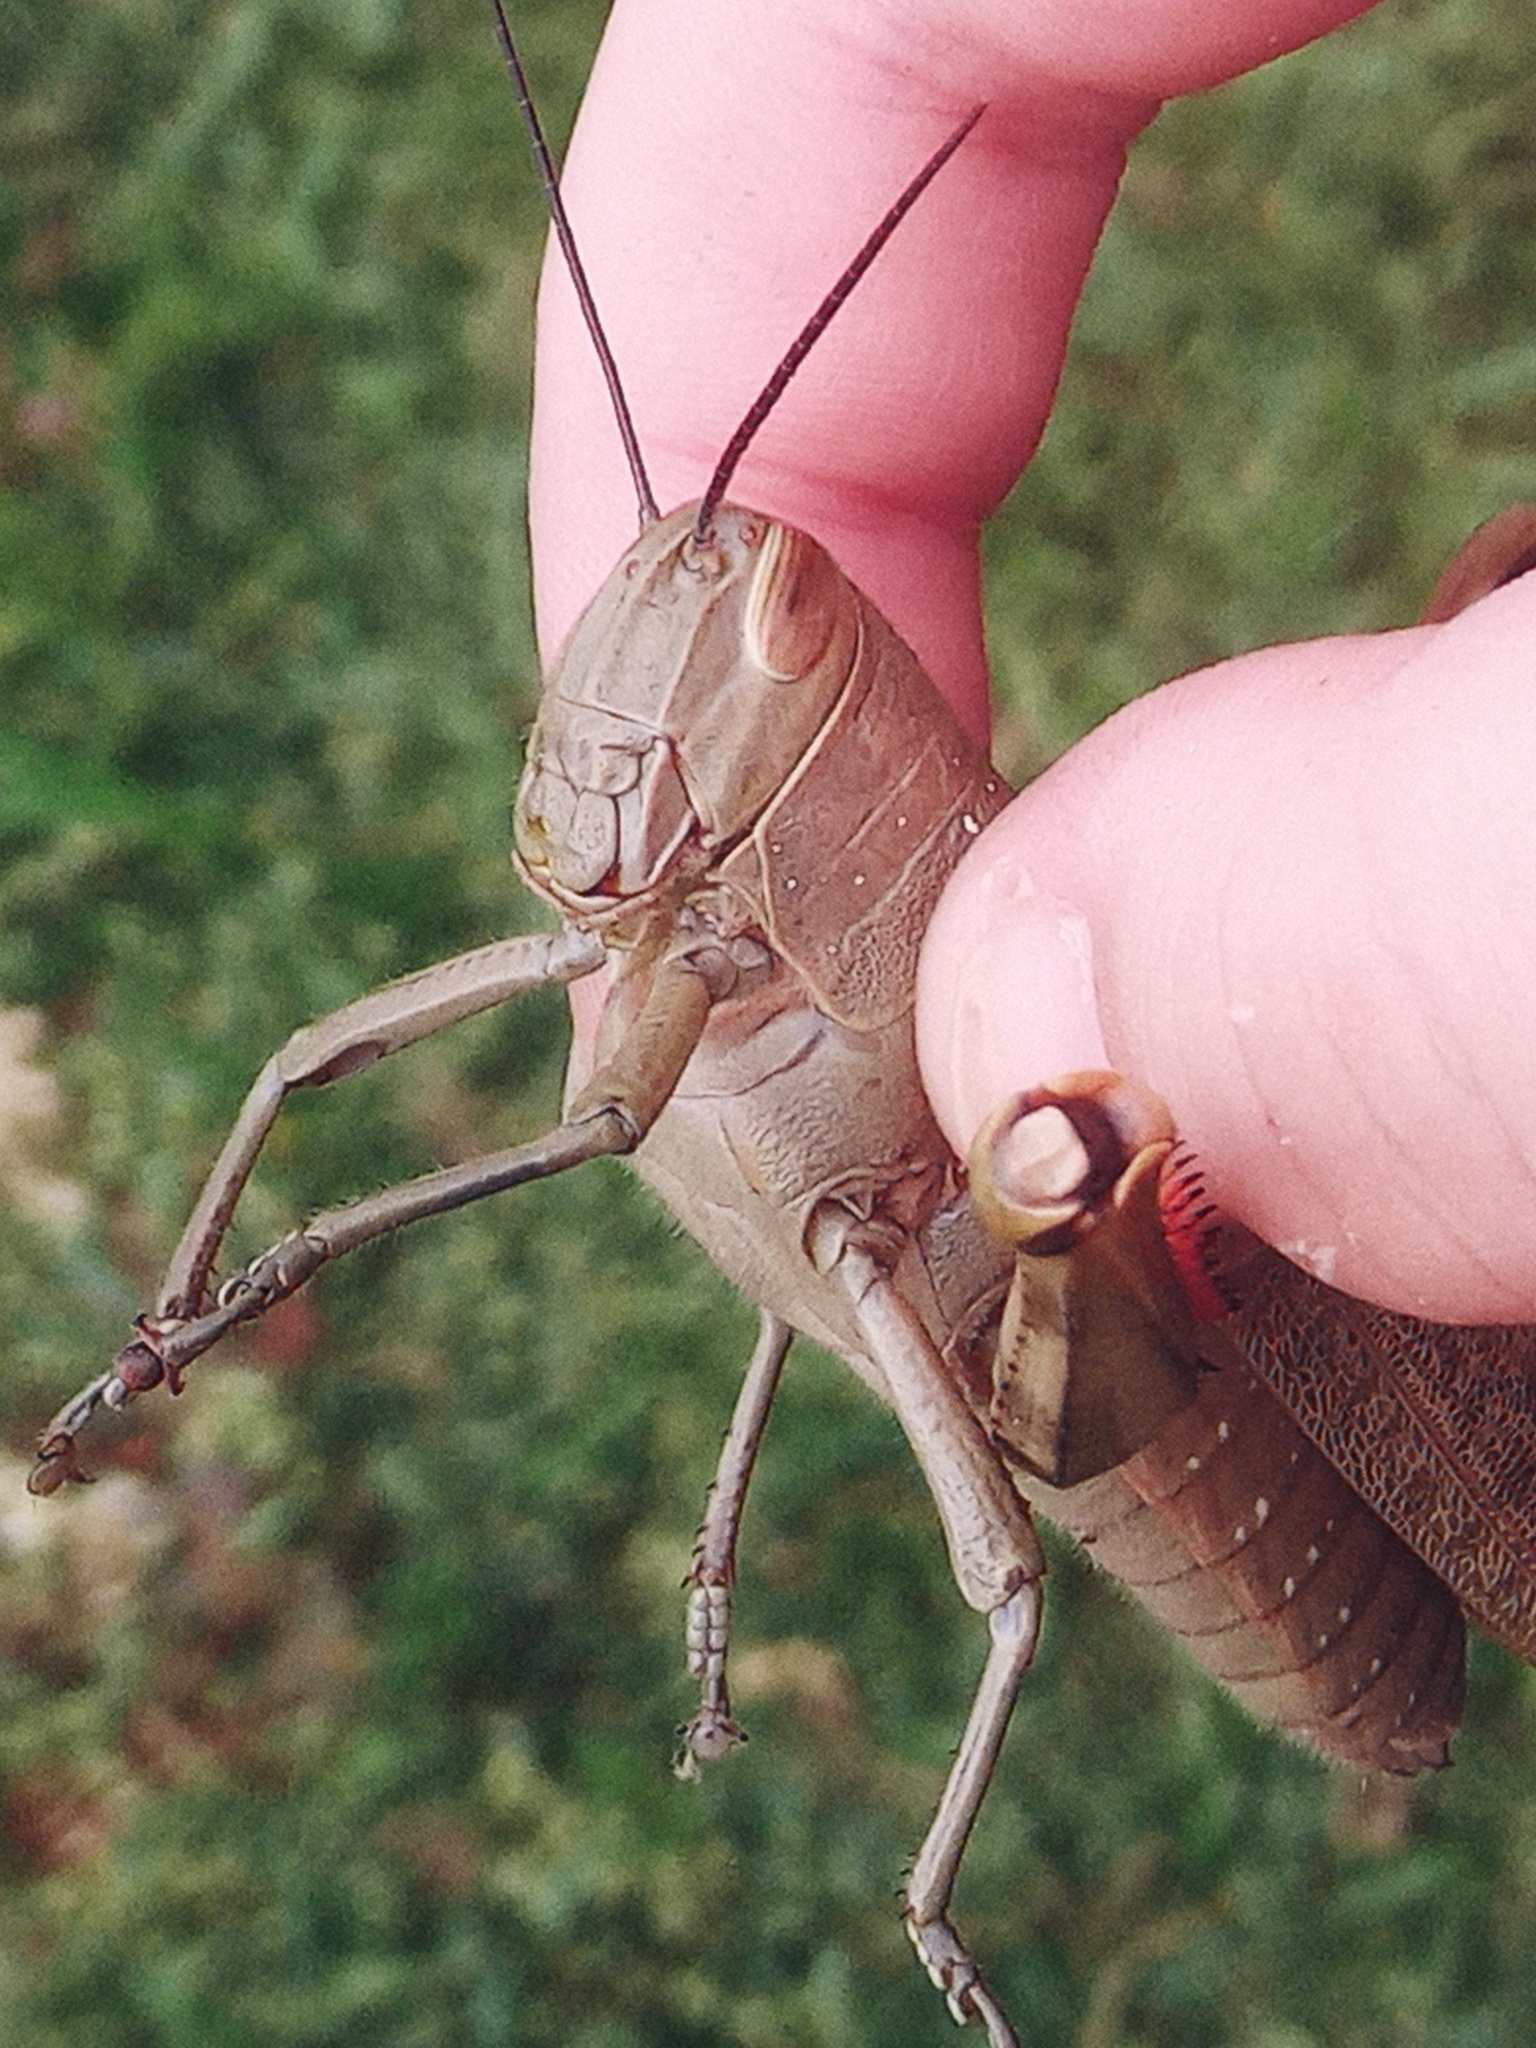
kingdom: Animalia
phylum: Arthropoda
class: Insecta
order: Orthoptera
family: Acrididae
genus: Valanga
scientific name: Valanga irregularis
